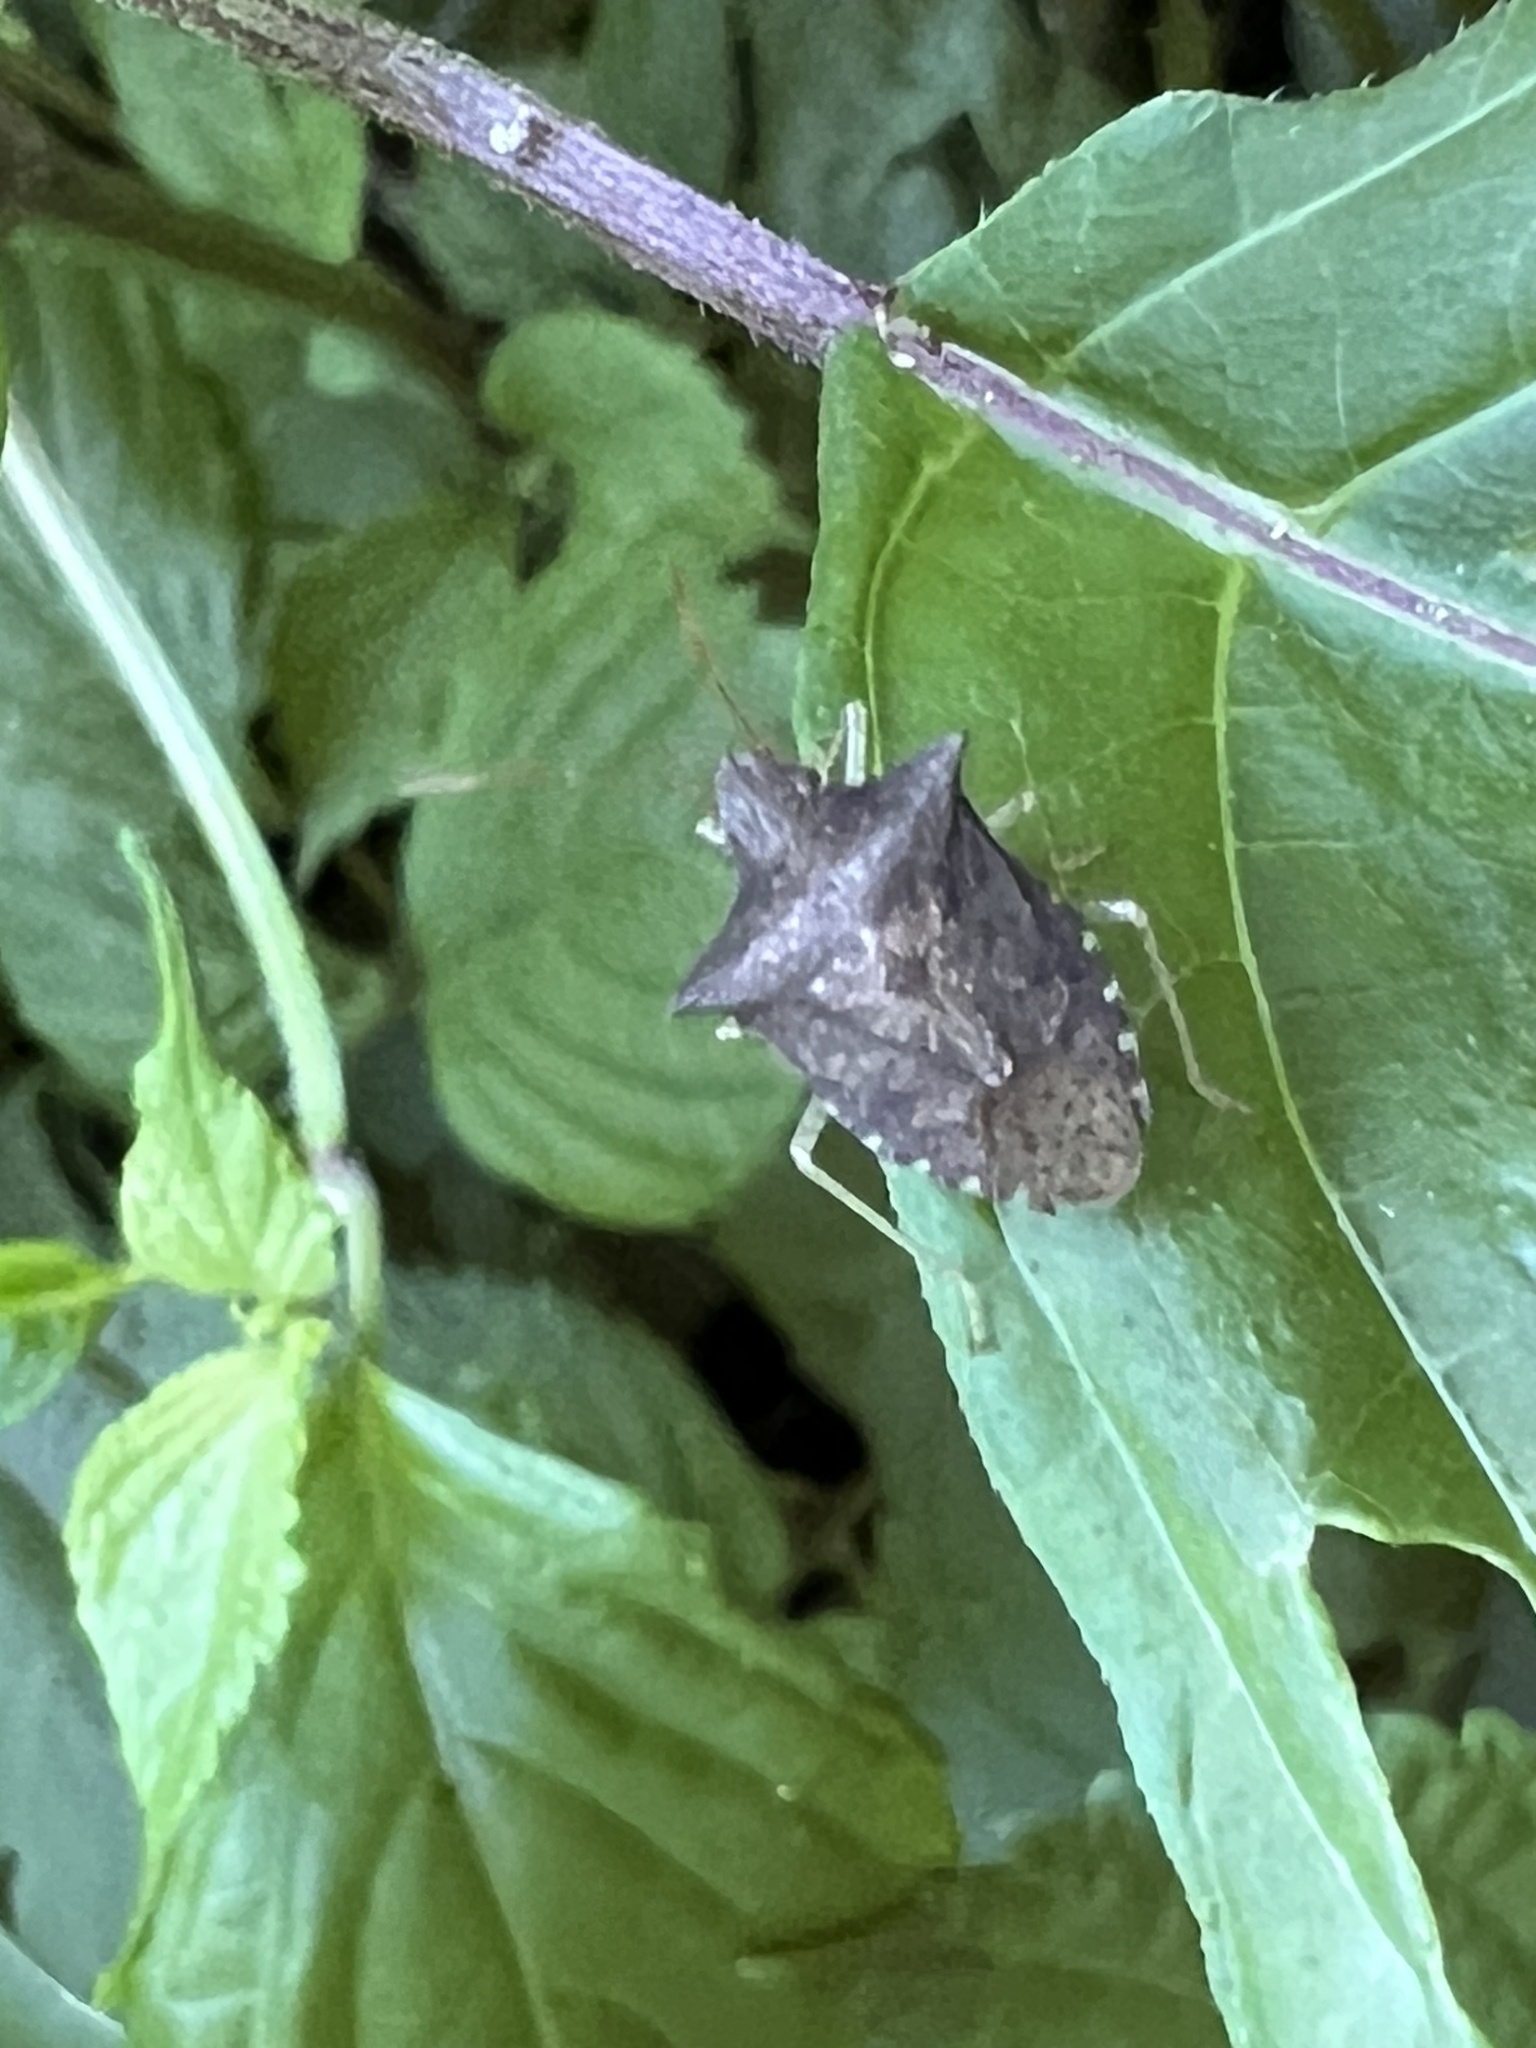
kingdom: Animalia
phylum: Arthropoda
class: Insecta
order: Hemiptera
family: Pentatomidae
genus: Euschistus
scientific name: Euschistus tristigmus
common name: Dusky stink bug
